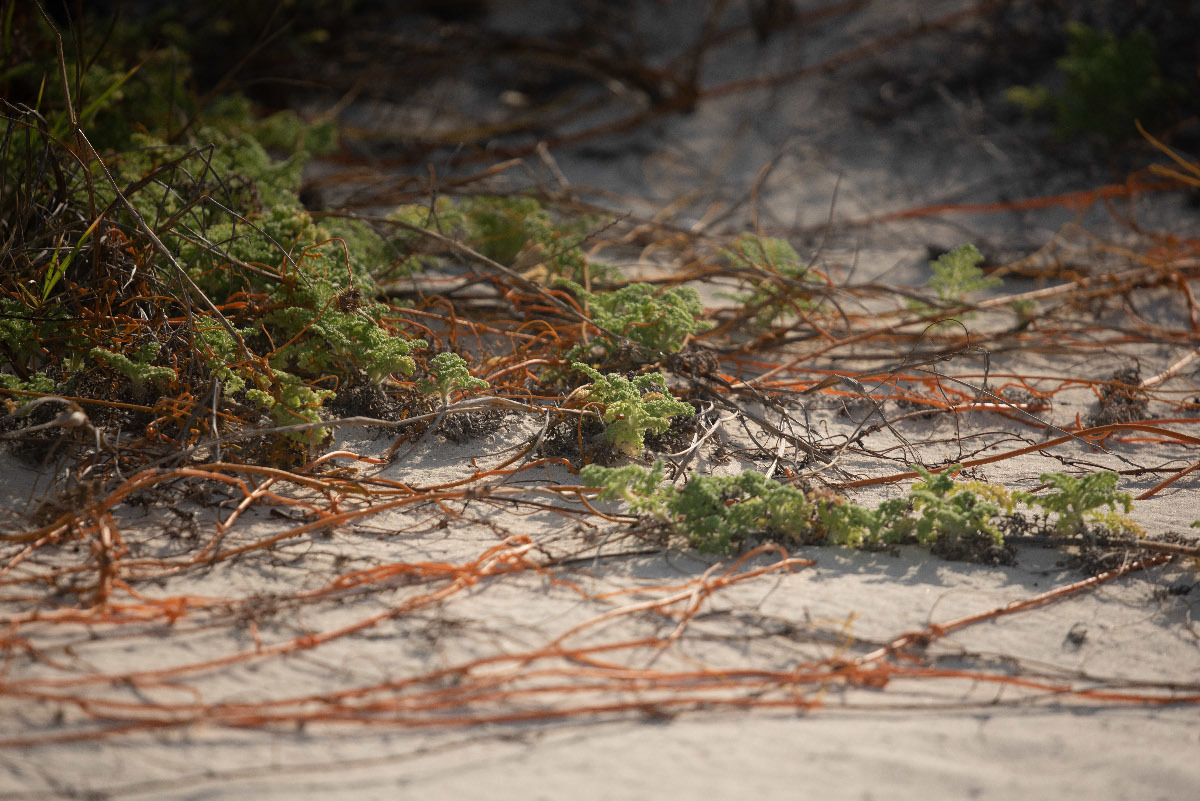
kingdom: Plantae
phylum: Tracheophyta
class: Magnoliopsida
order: Asterales
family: Asteraceae
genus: Ambrosia
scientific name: Ambrosia hispida
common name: Coastal ragweed
